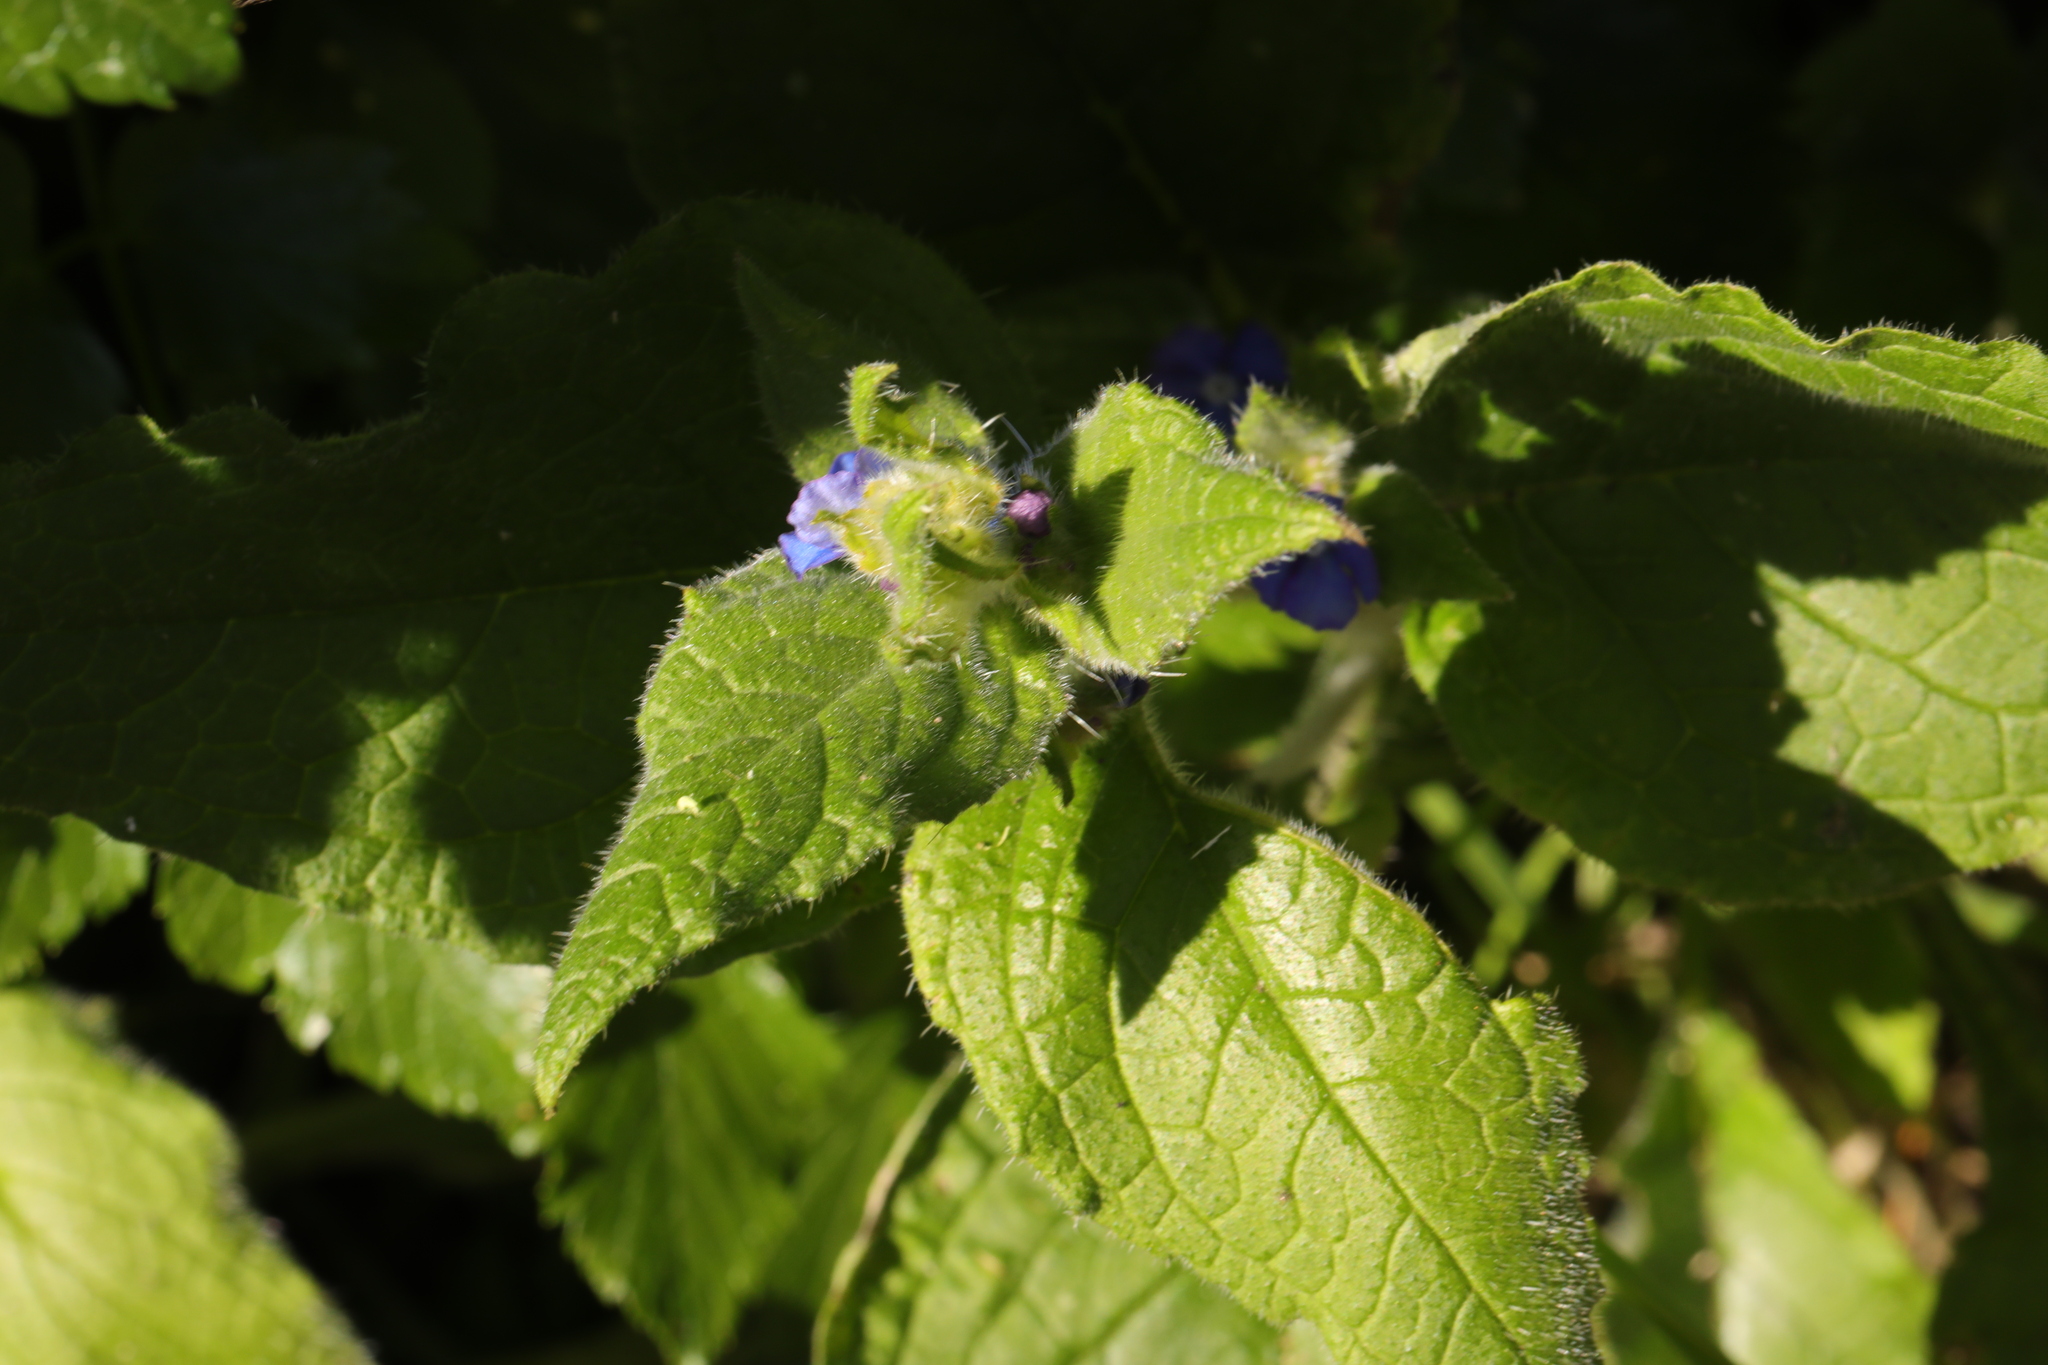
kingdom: Plantae
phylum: Tracheophyta
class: Magnoliopsida
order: Boraginales
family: Boraginaceae
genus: Pentaglottis
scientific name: Pentaglottis sempervirens
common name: Green alkanet
